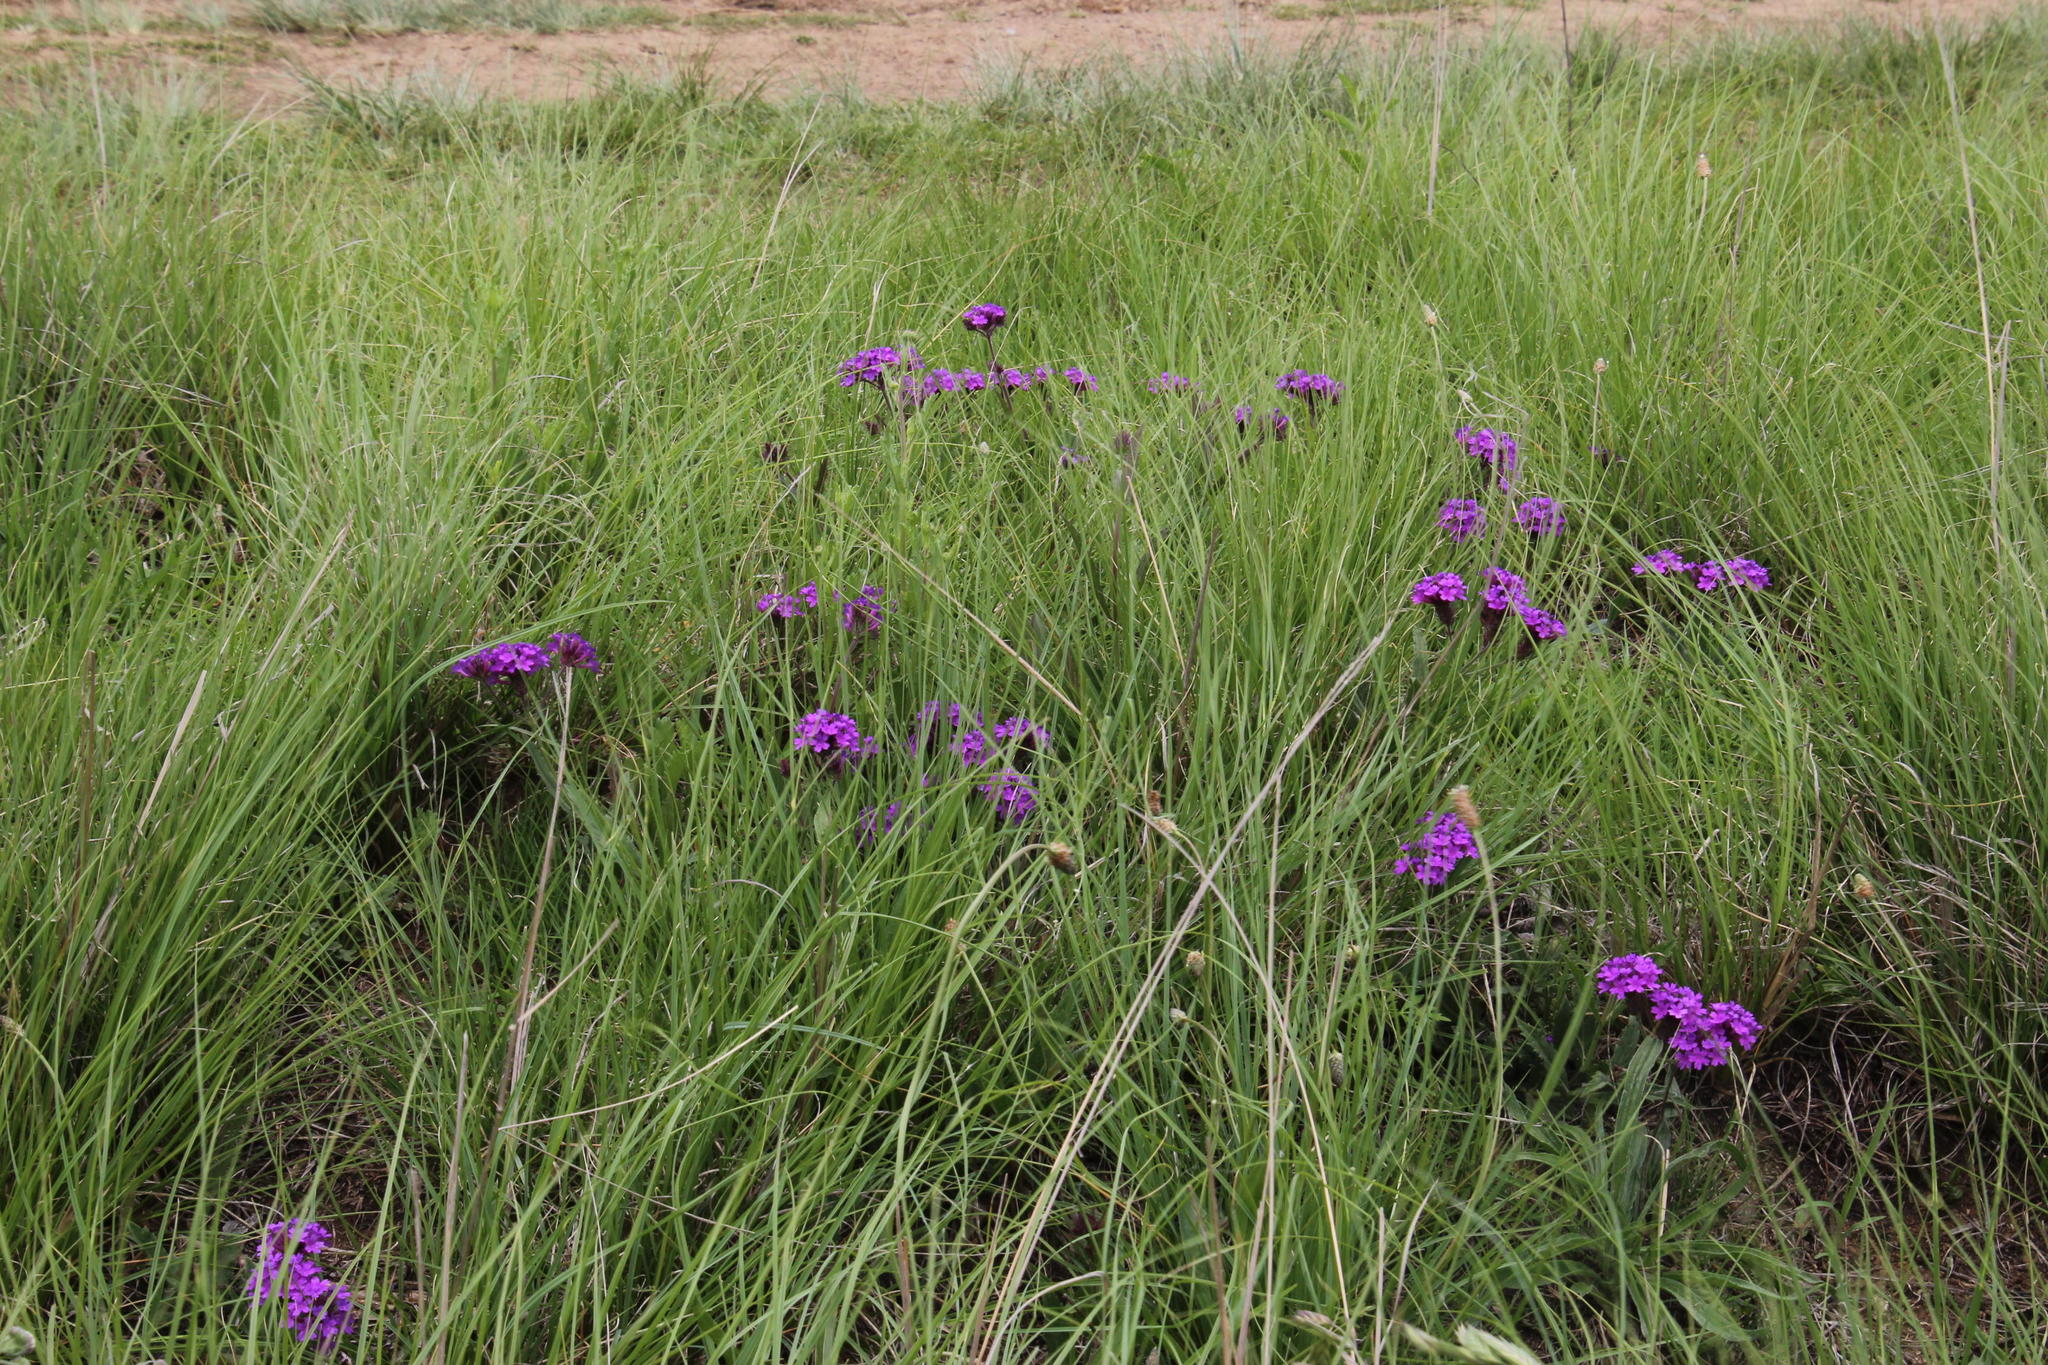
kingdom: Plantae
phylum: Tracheophyta
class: Magnoliopsida
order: Lamiales
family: Verbenaceae
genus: Verbena
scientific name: Verbena rigida
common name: Slender vervain
